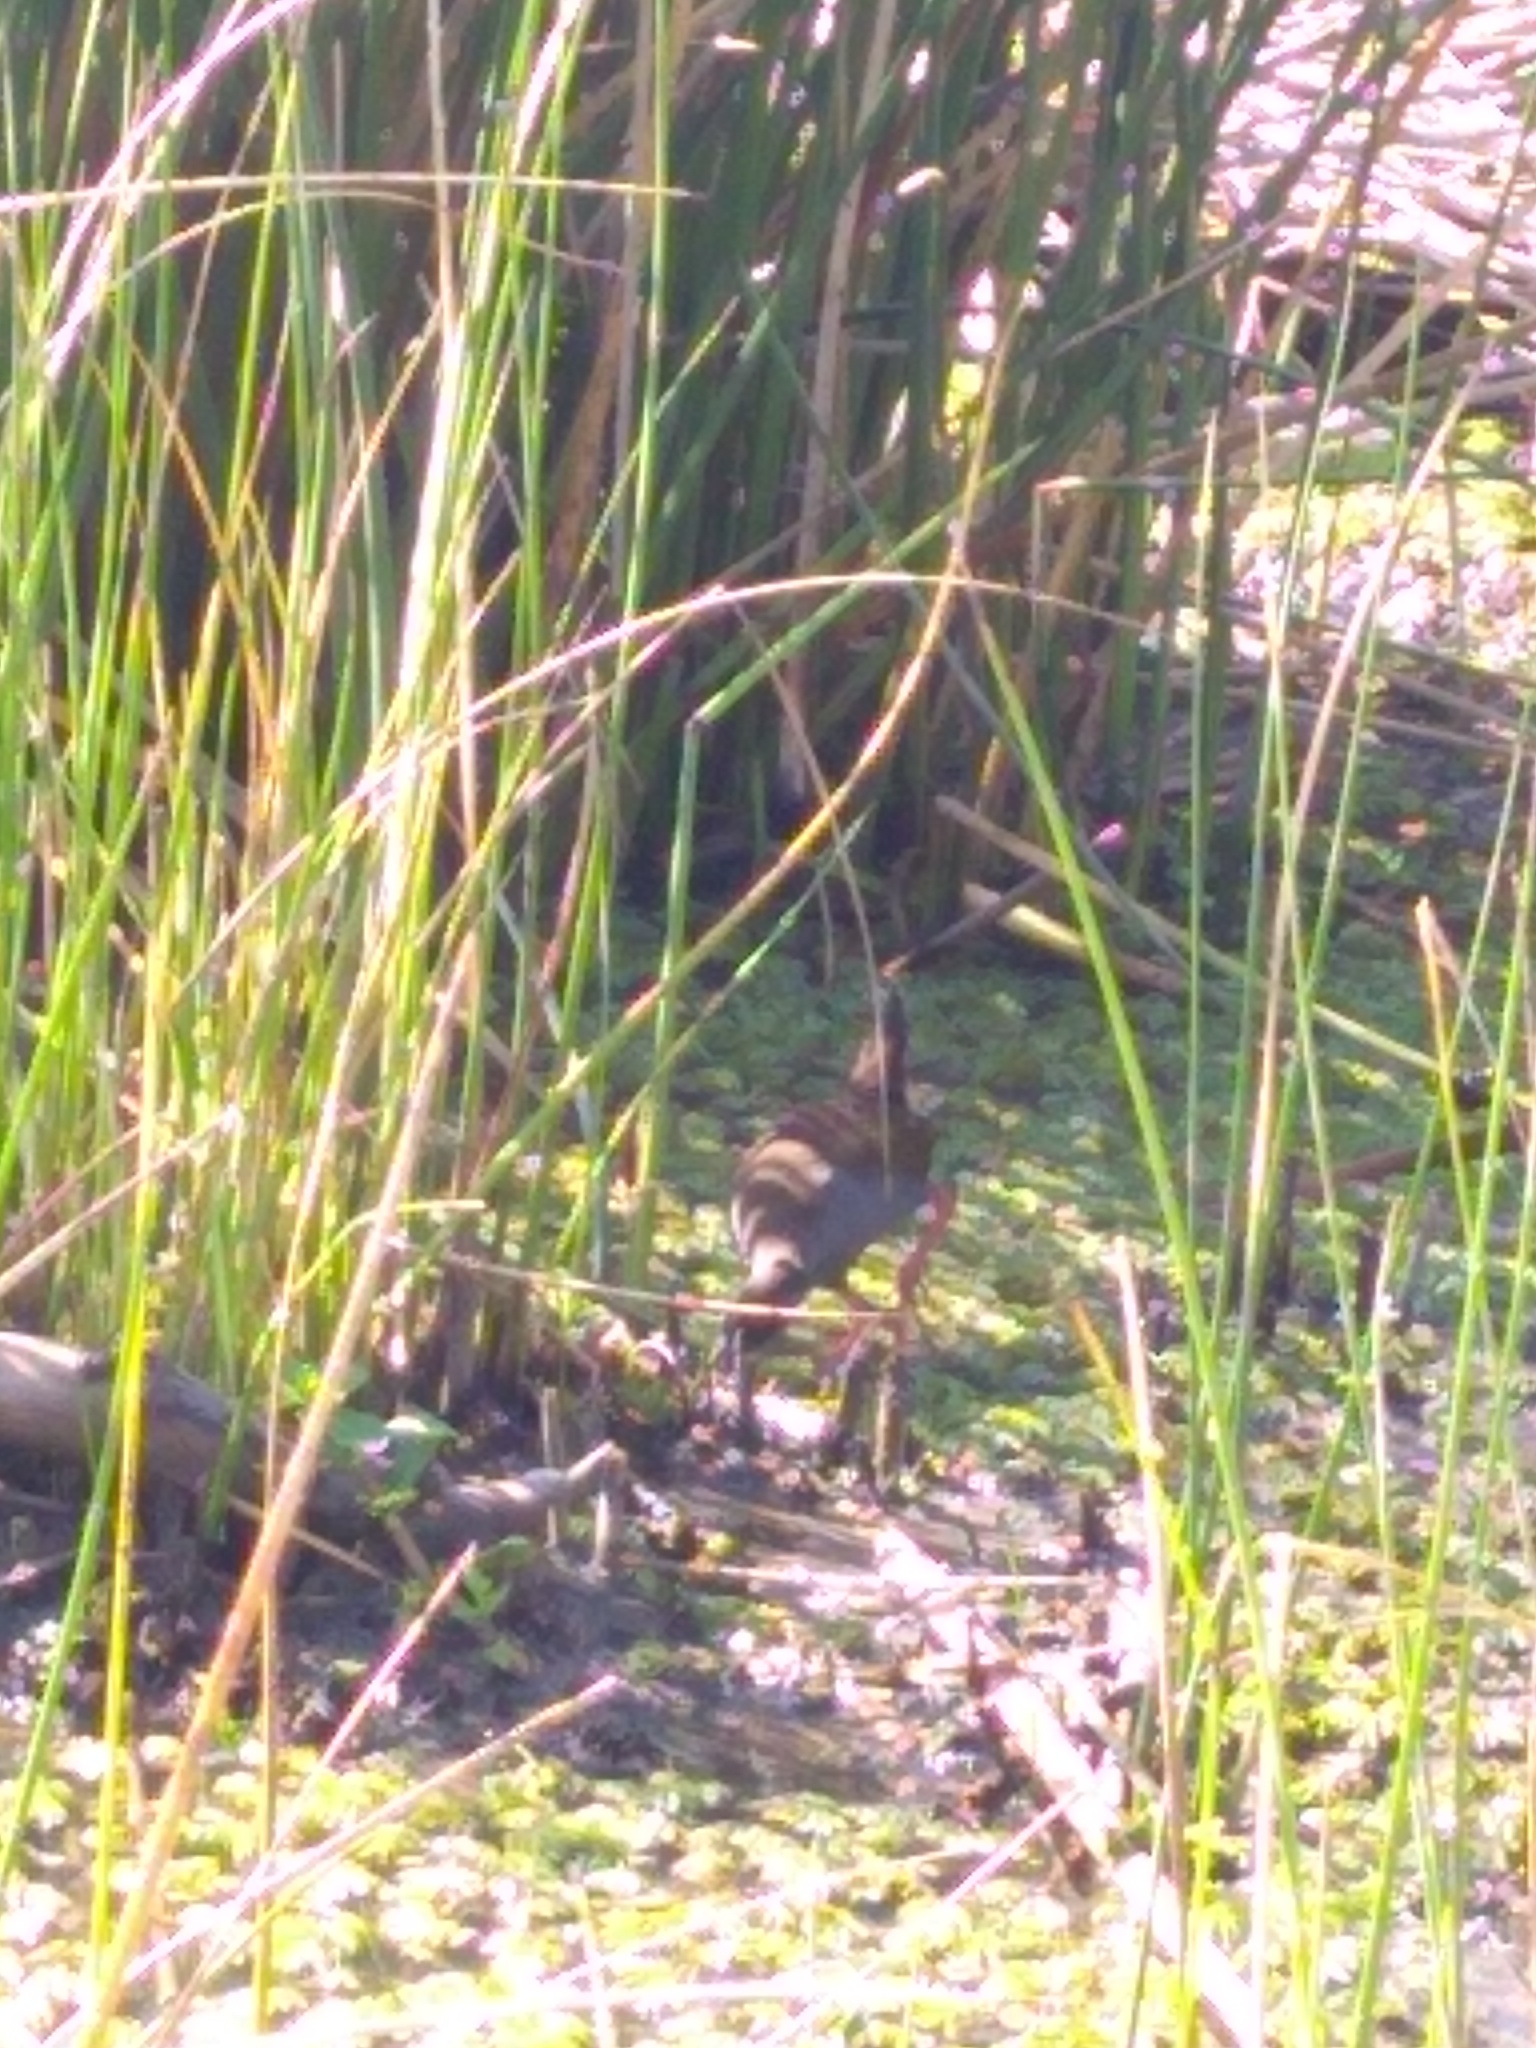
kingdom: Animalia
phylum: Chordata
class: Aves
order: Gruiformes
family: Rallidae
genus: Pardirallus
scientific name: Pardirallus sanguinolentus
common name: Plumbeous rail
